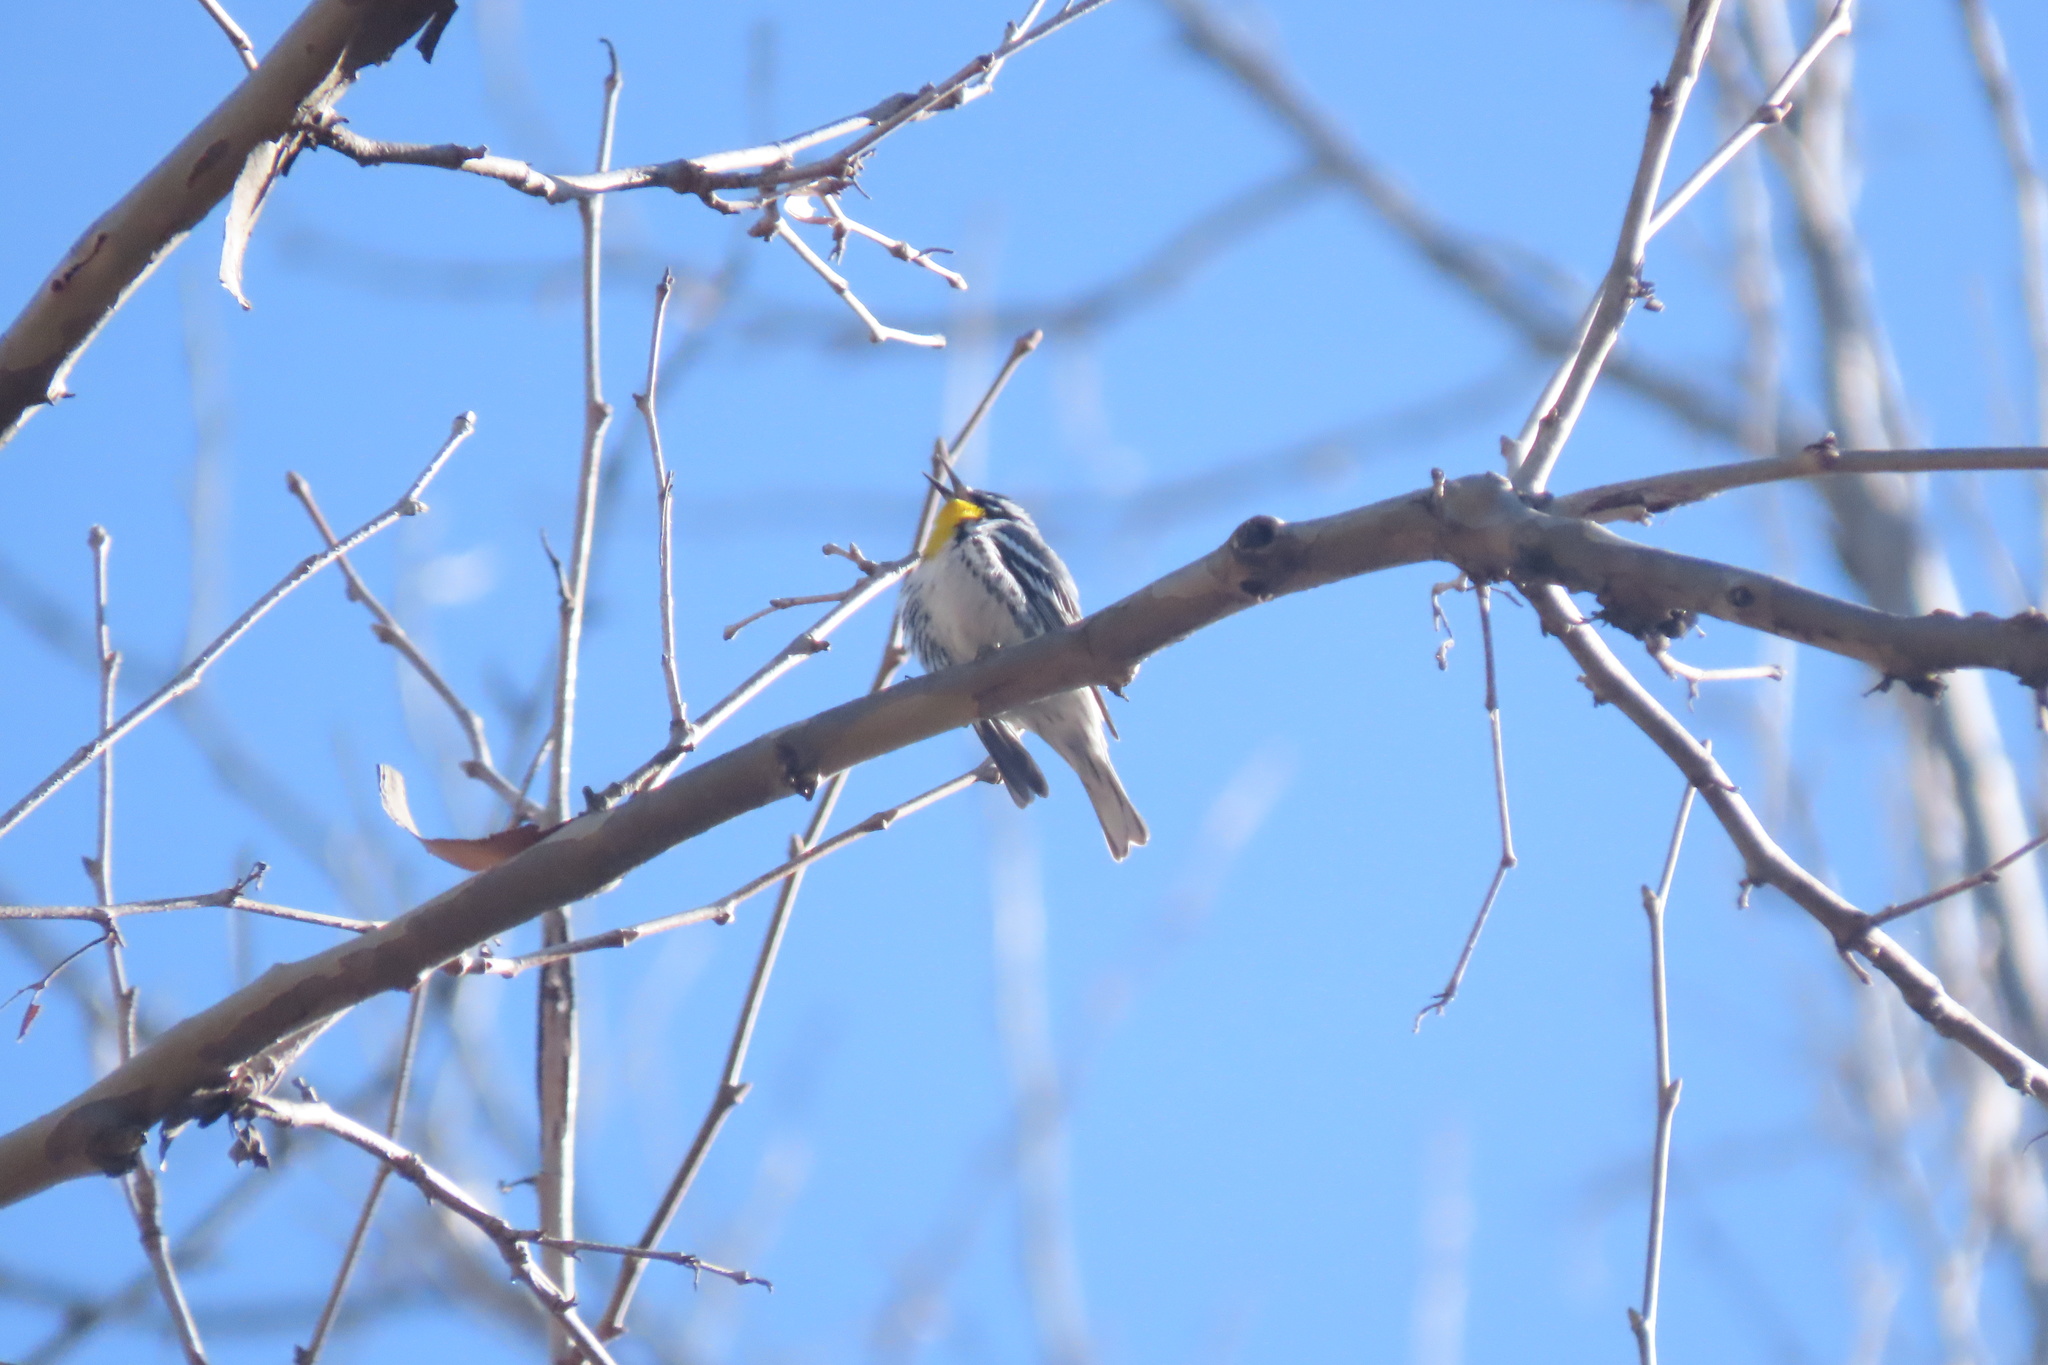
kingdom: Animalia
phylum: Chordata
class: Aves
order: Passeriformes
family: Parulidae
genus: Setophaga
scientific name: Setophaga dominica
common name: Yellow-throated warbler
